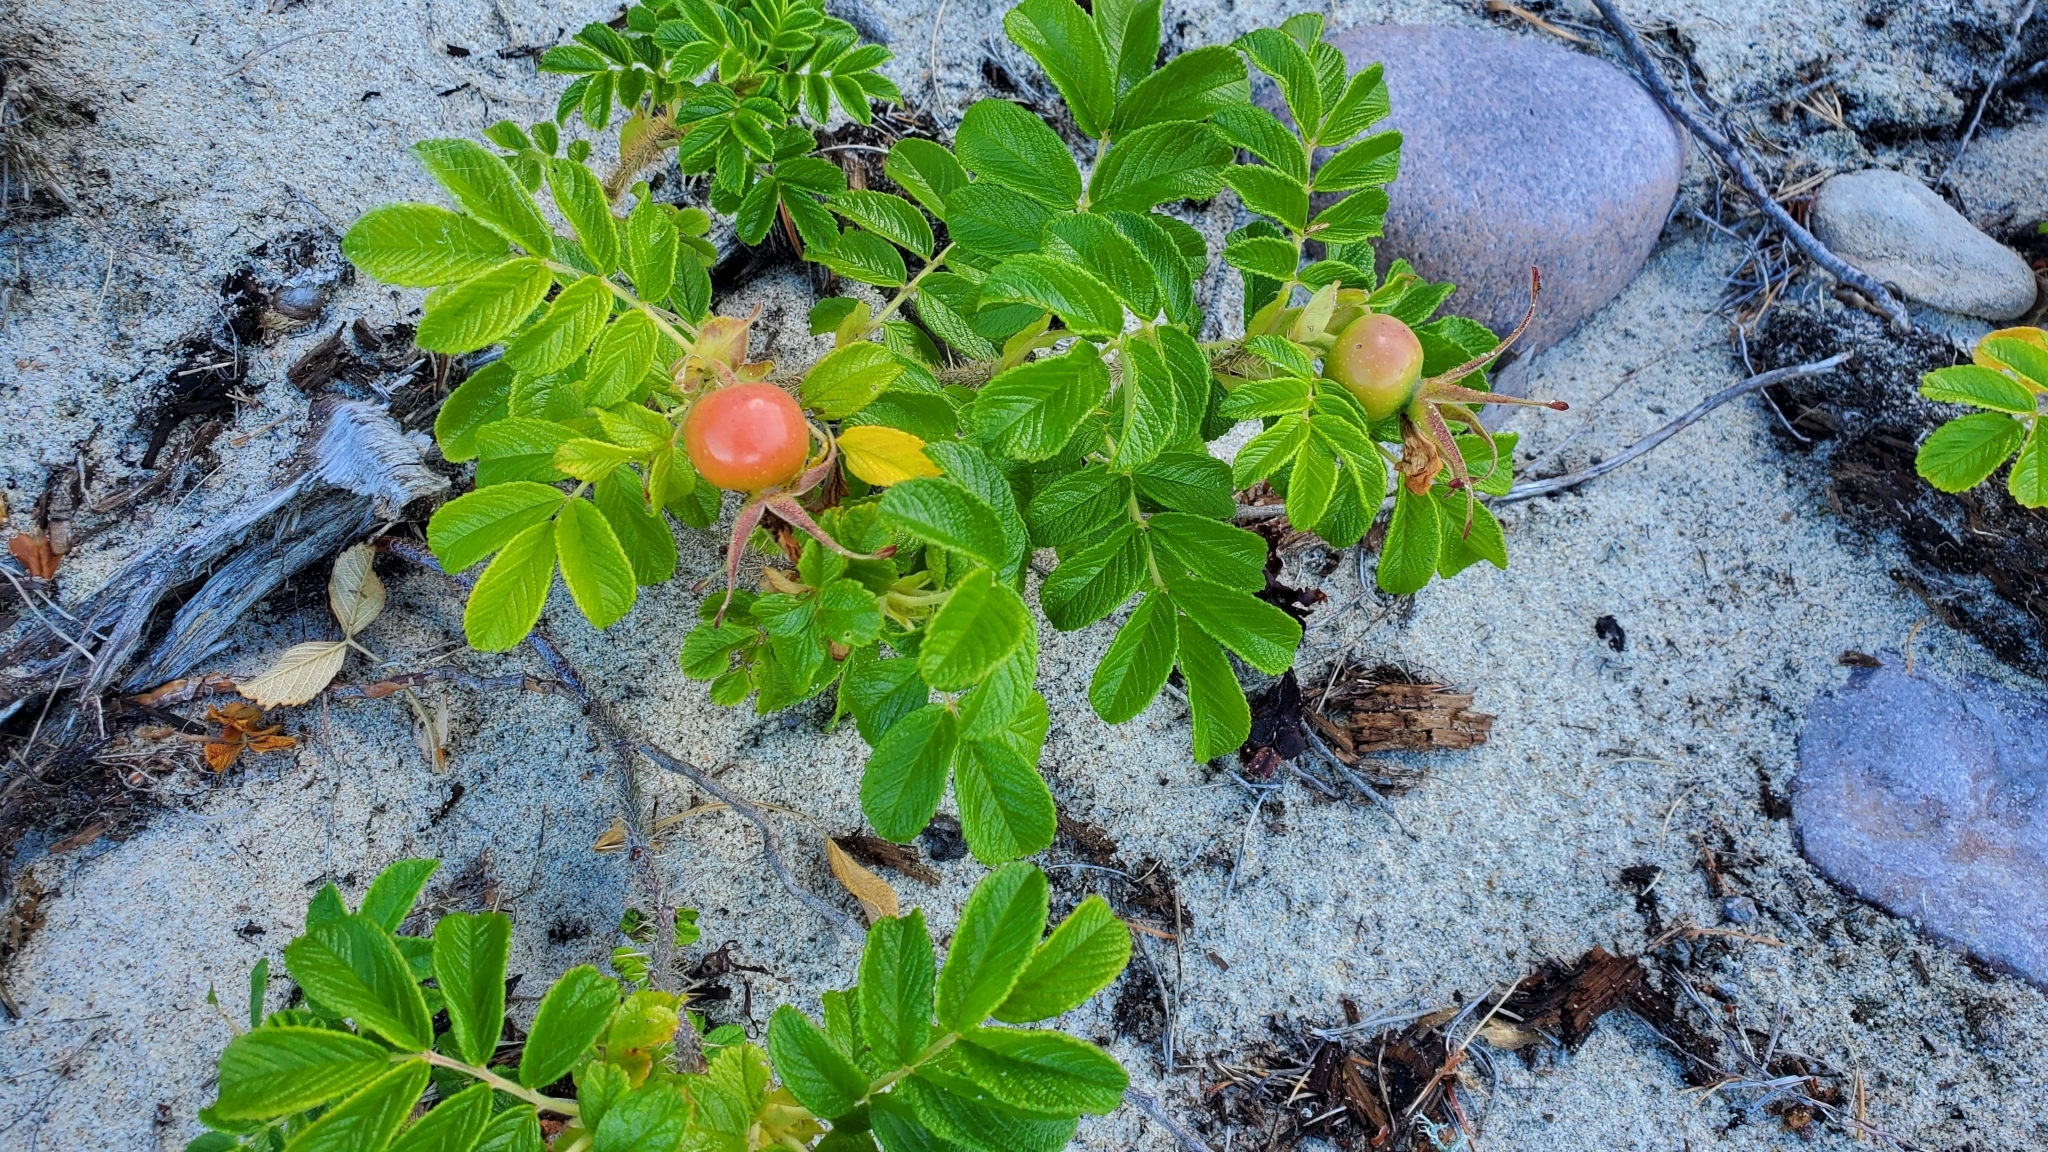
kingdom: Plantae
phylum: Tracheophyta
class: Magnoliopsida
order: Rosales
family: Rosaceae
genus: Rosa
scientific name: Rosa rugosa
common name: Japanese rose
